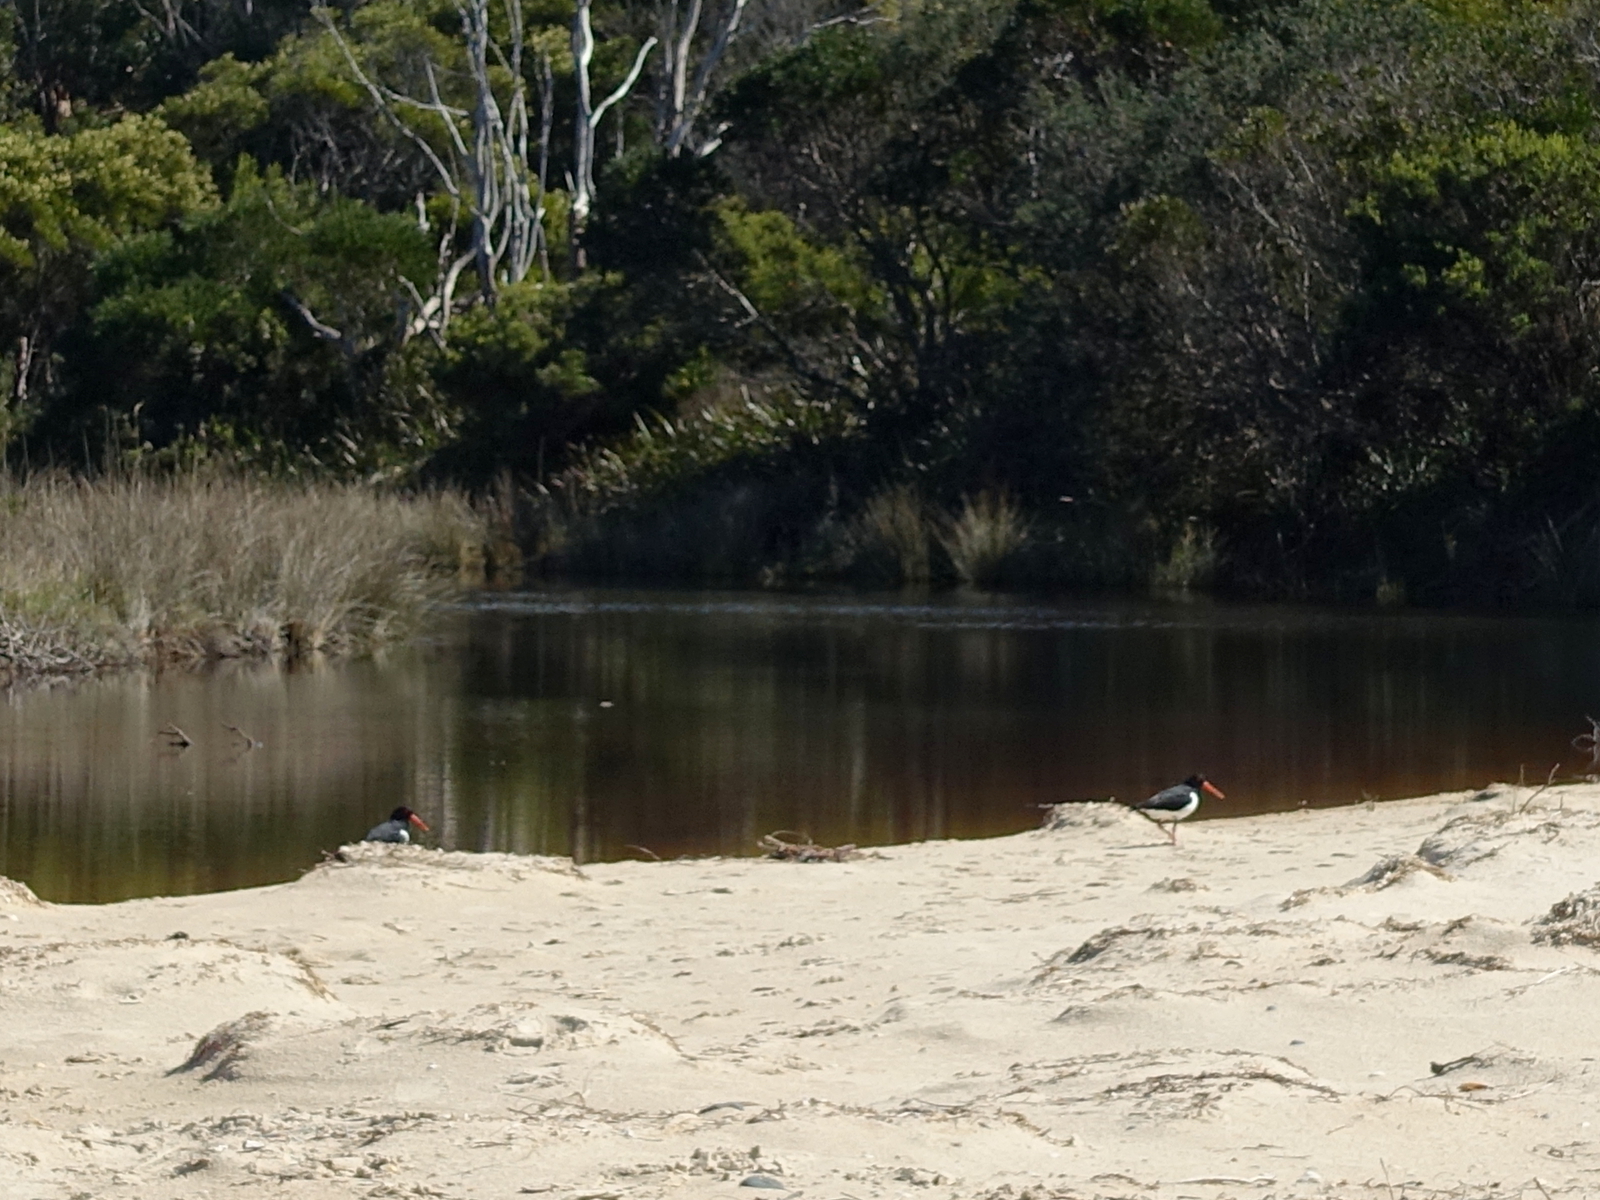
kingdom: Animalia
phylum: Chordata
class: Aves
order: Charadriiformes
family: Haematopodidae
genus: Haematopus
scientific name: Haematopus longirostris
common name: Pied oystercatcher
